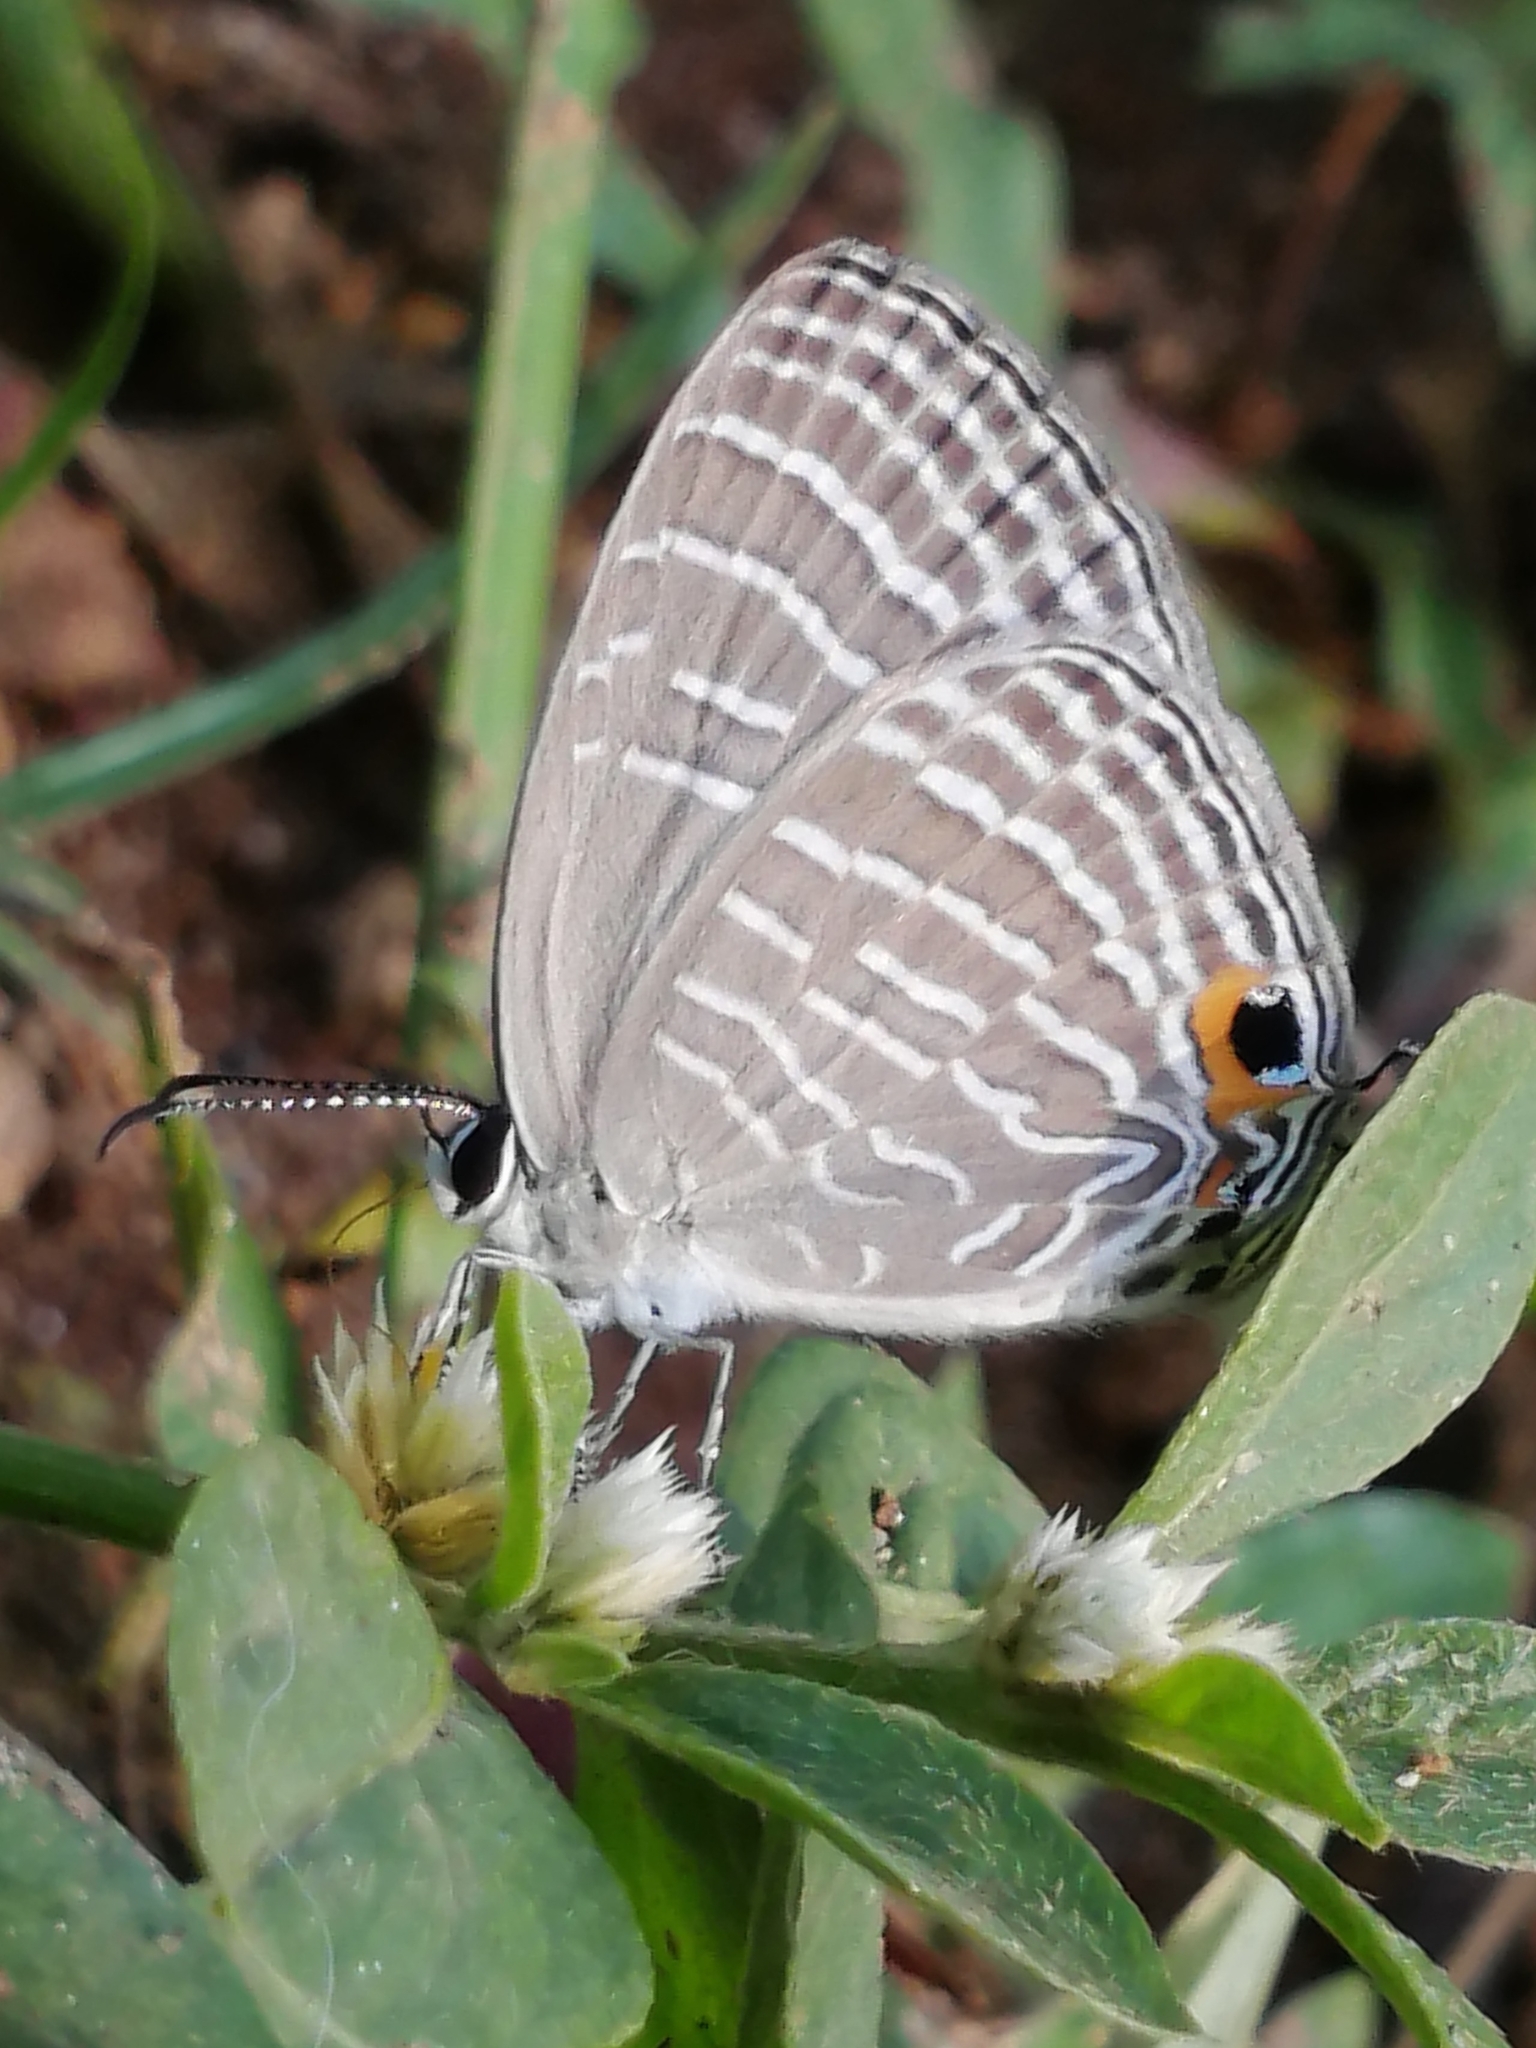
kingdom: Animalia
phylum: Arthropoda
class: Insecta
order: Lepidoptera
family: Lycaenidae
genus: Jamides
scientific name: Jamides celeno
